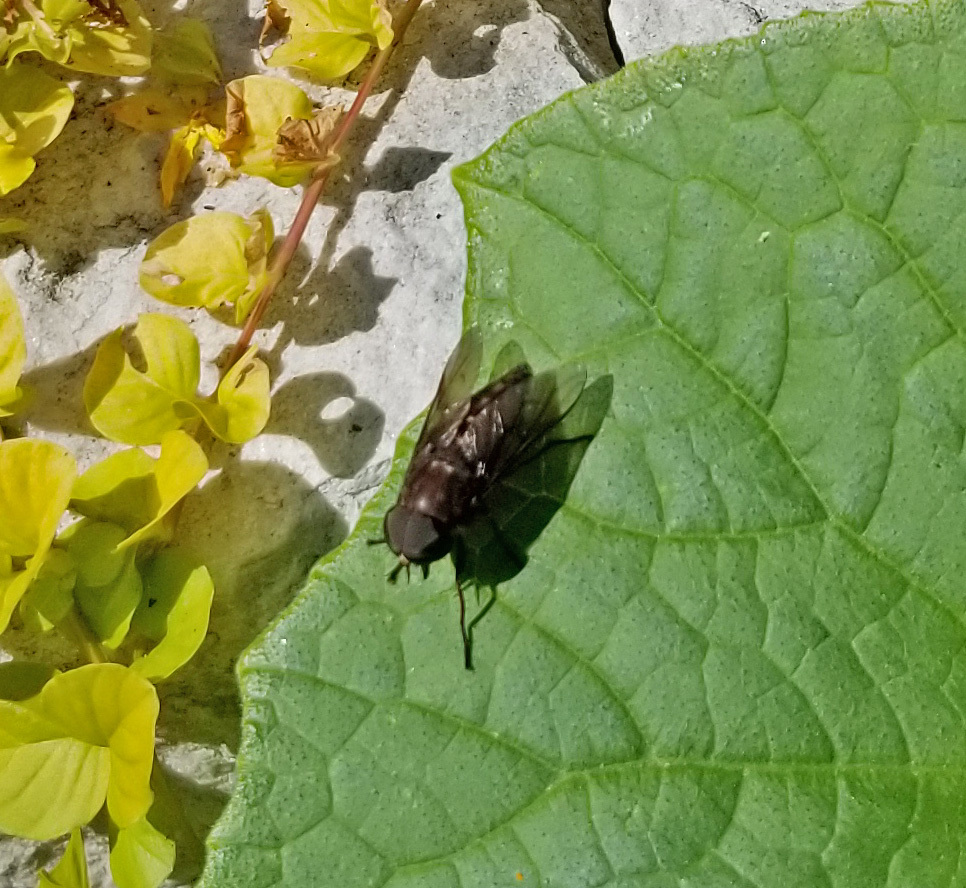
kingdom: Animalia
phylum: Arthropoda
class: Insecta
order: Diptera
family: Tabanidae
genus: Tabanus
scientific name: Tabanus atratus
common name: Black horse fly
